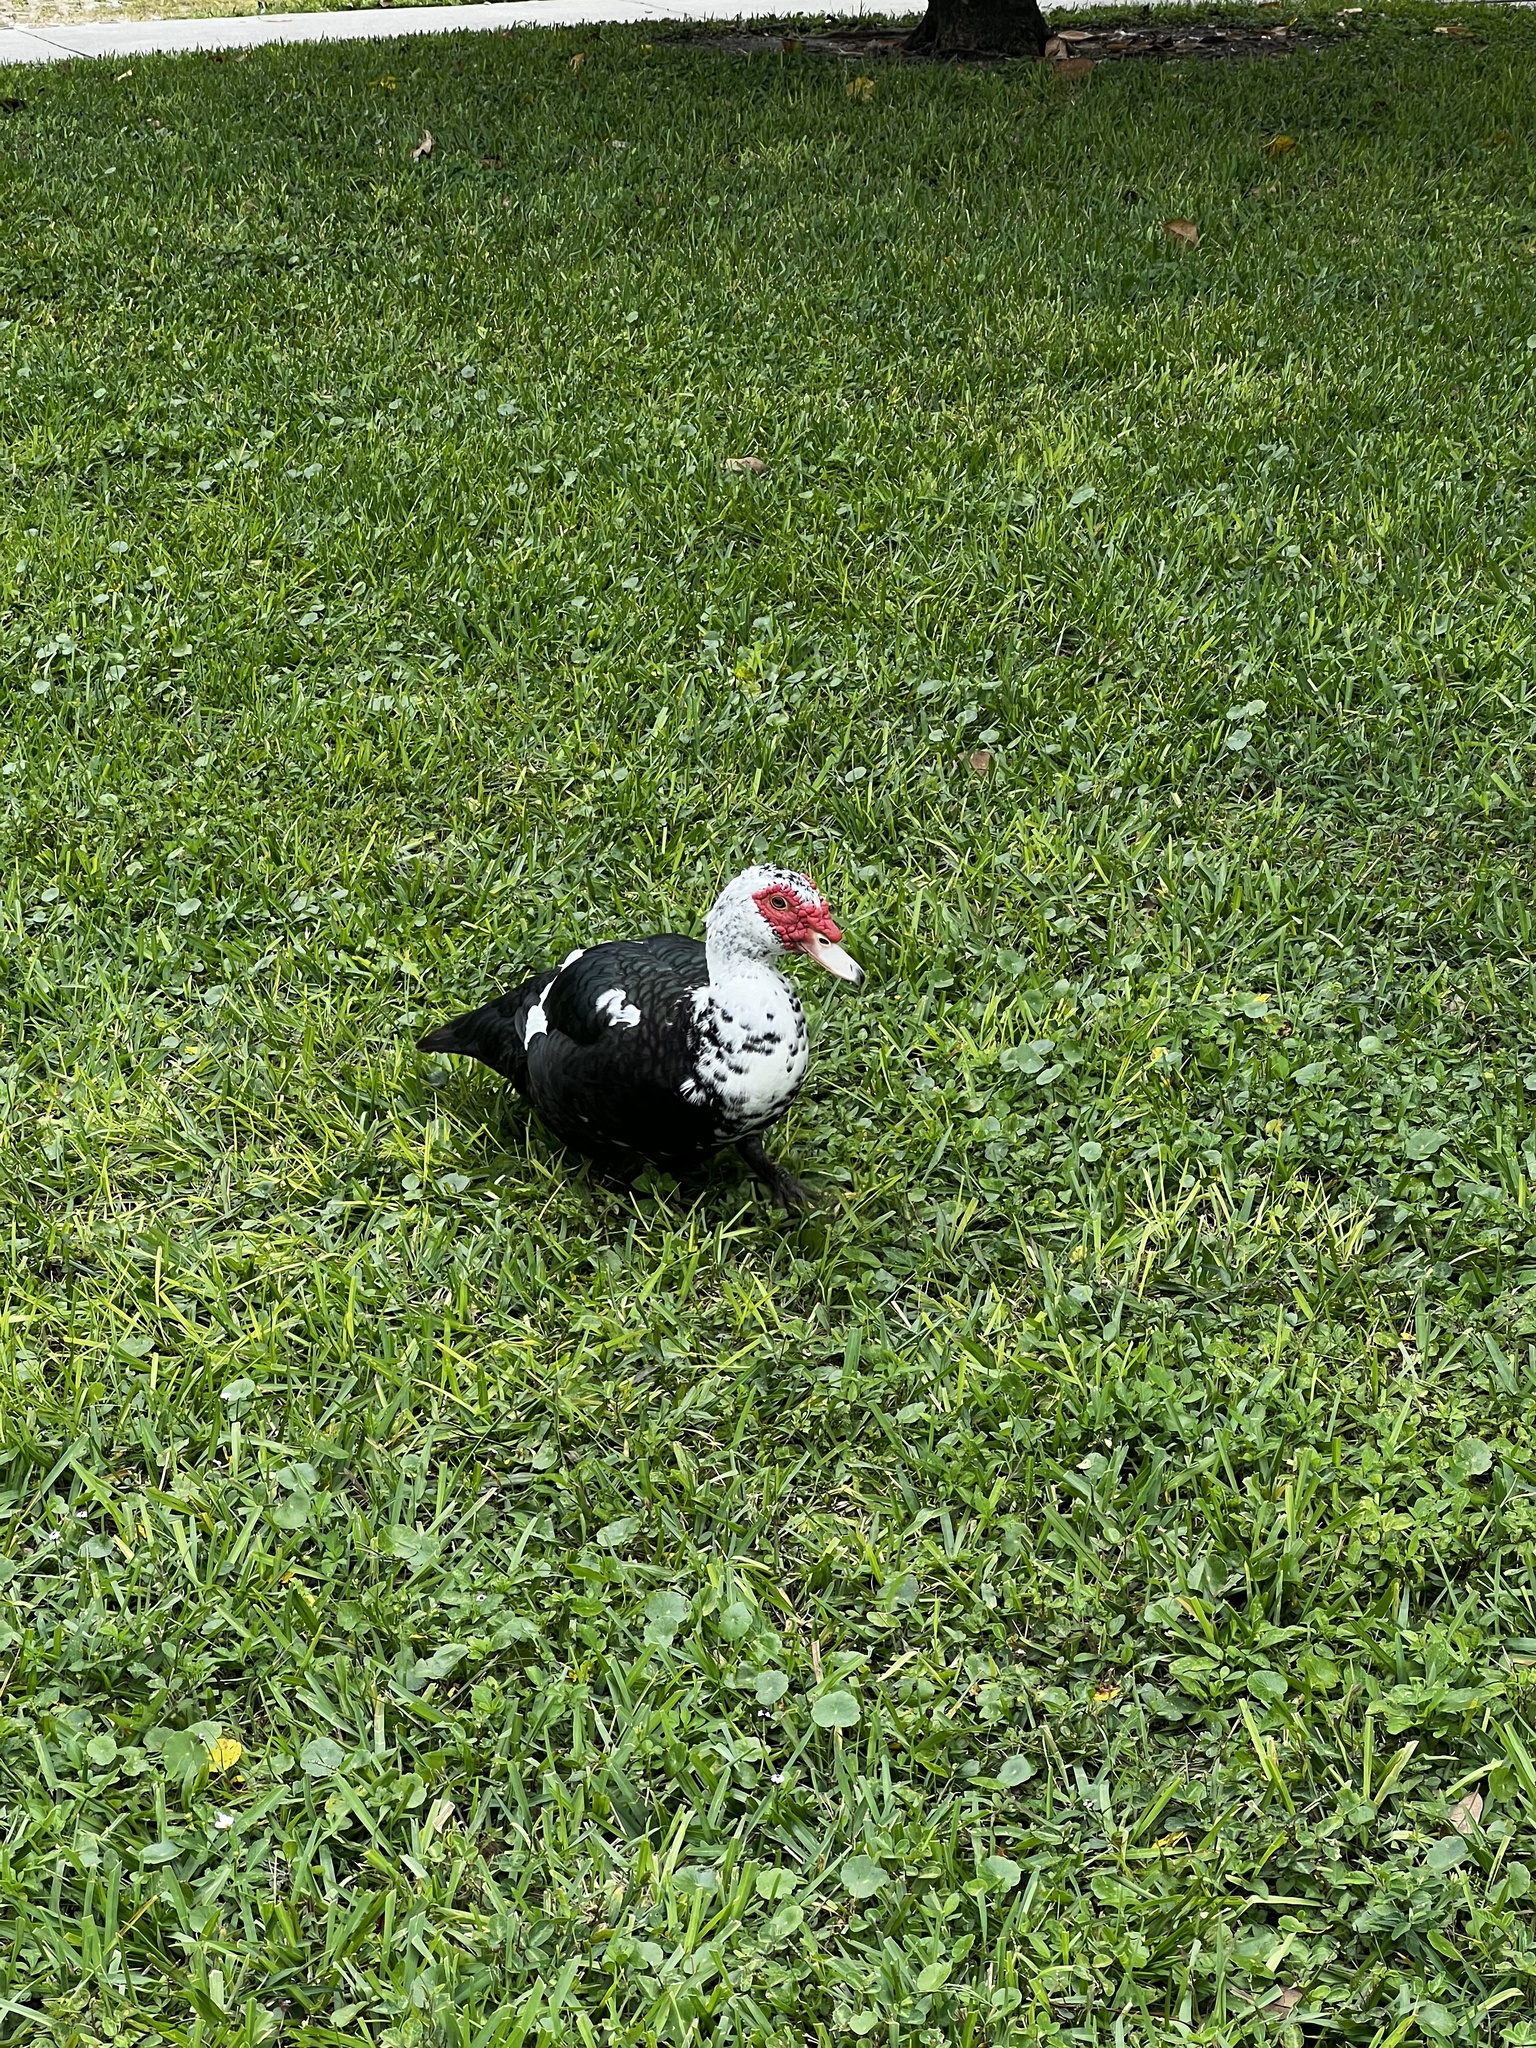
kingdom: Animalia
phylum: Chordata
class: Aves
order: Anseriformes
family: Anatidae
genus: Cairina
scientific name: Cairina moschata
